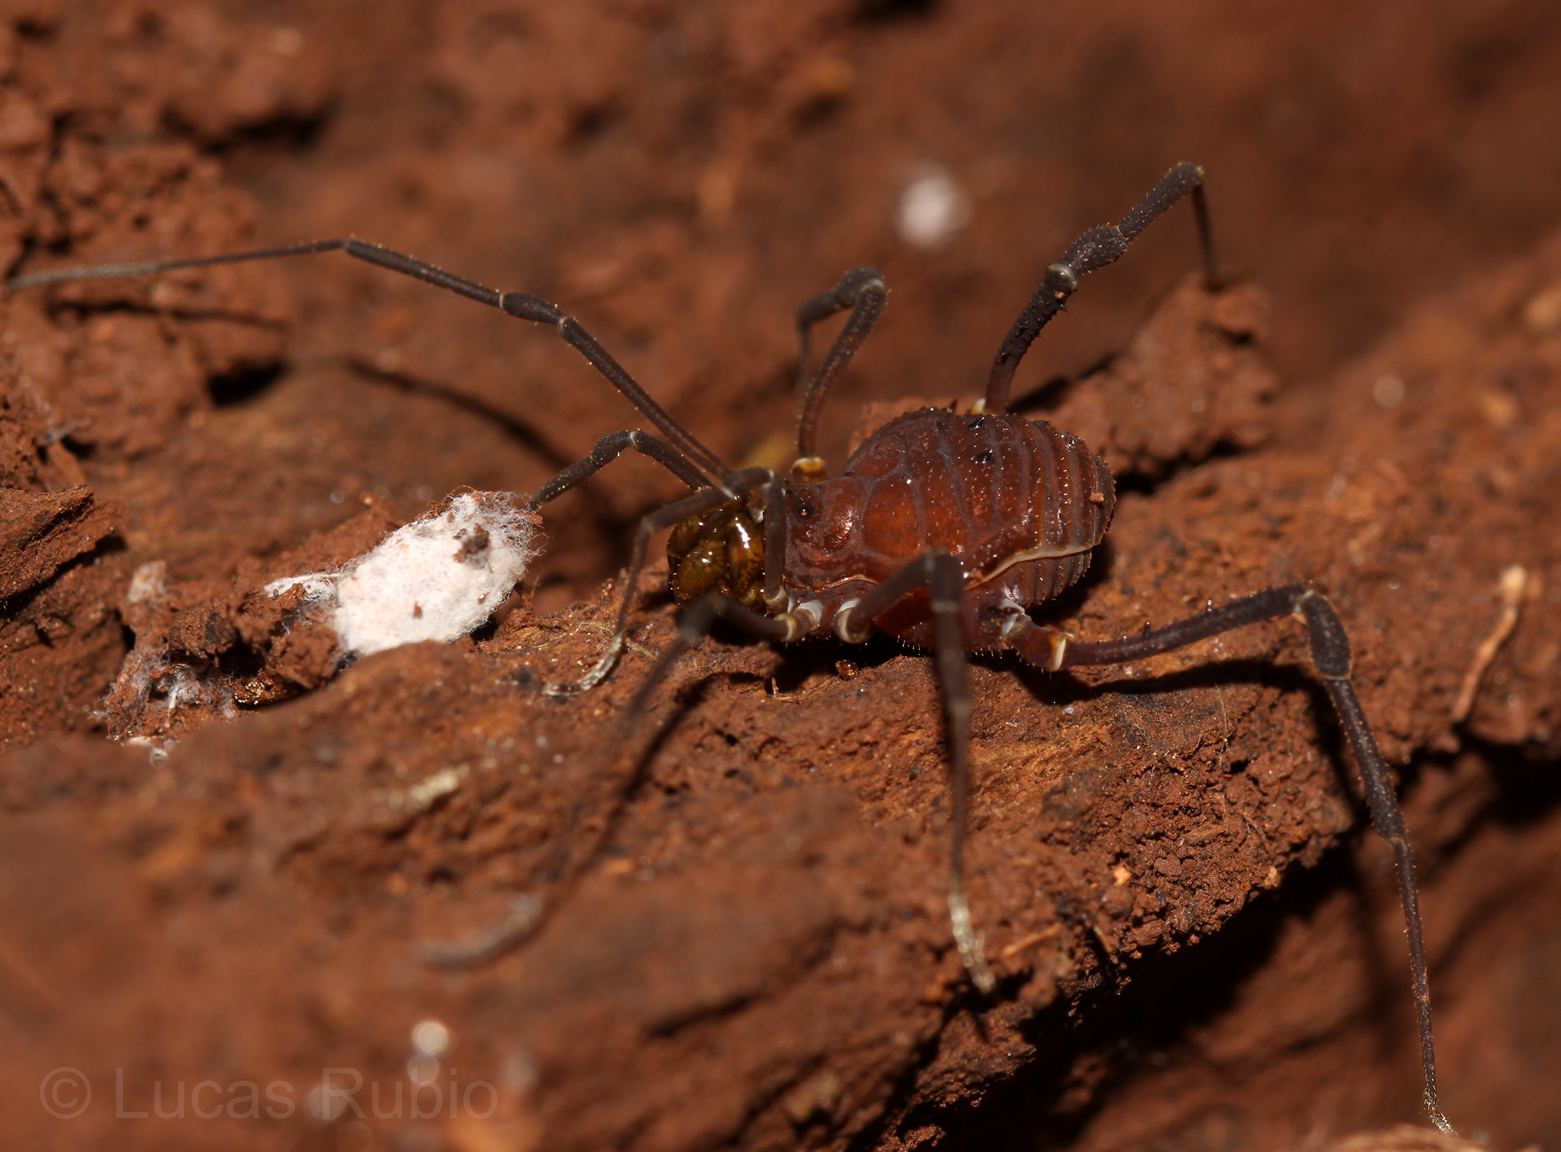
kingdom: Animalia
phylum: Arthropoda
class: Arachnida
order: Opiliones
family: Gonyleptidae
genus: Opisthoplatus
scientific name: Opisthoplatus vegetus
